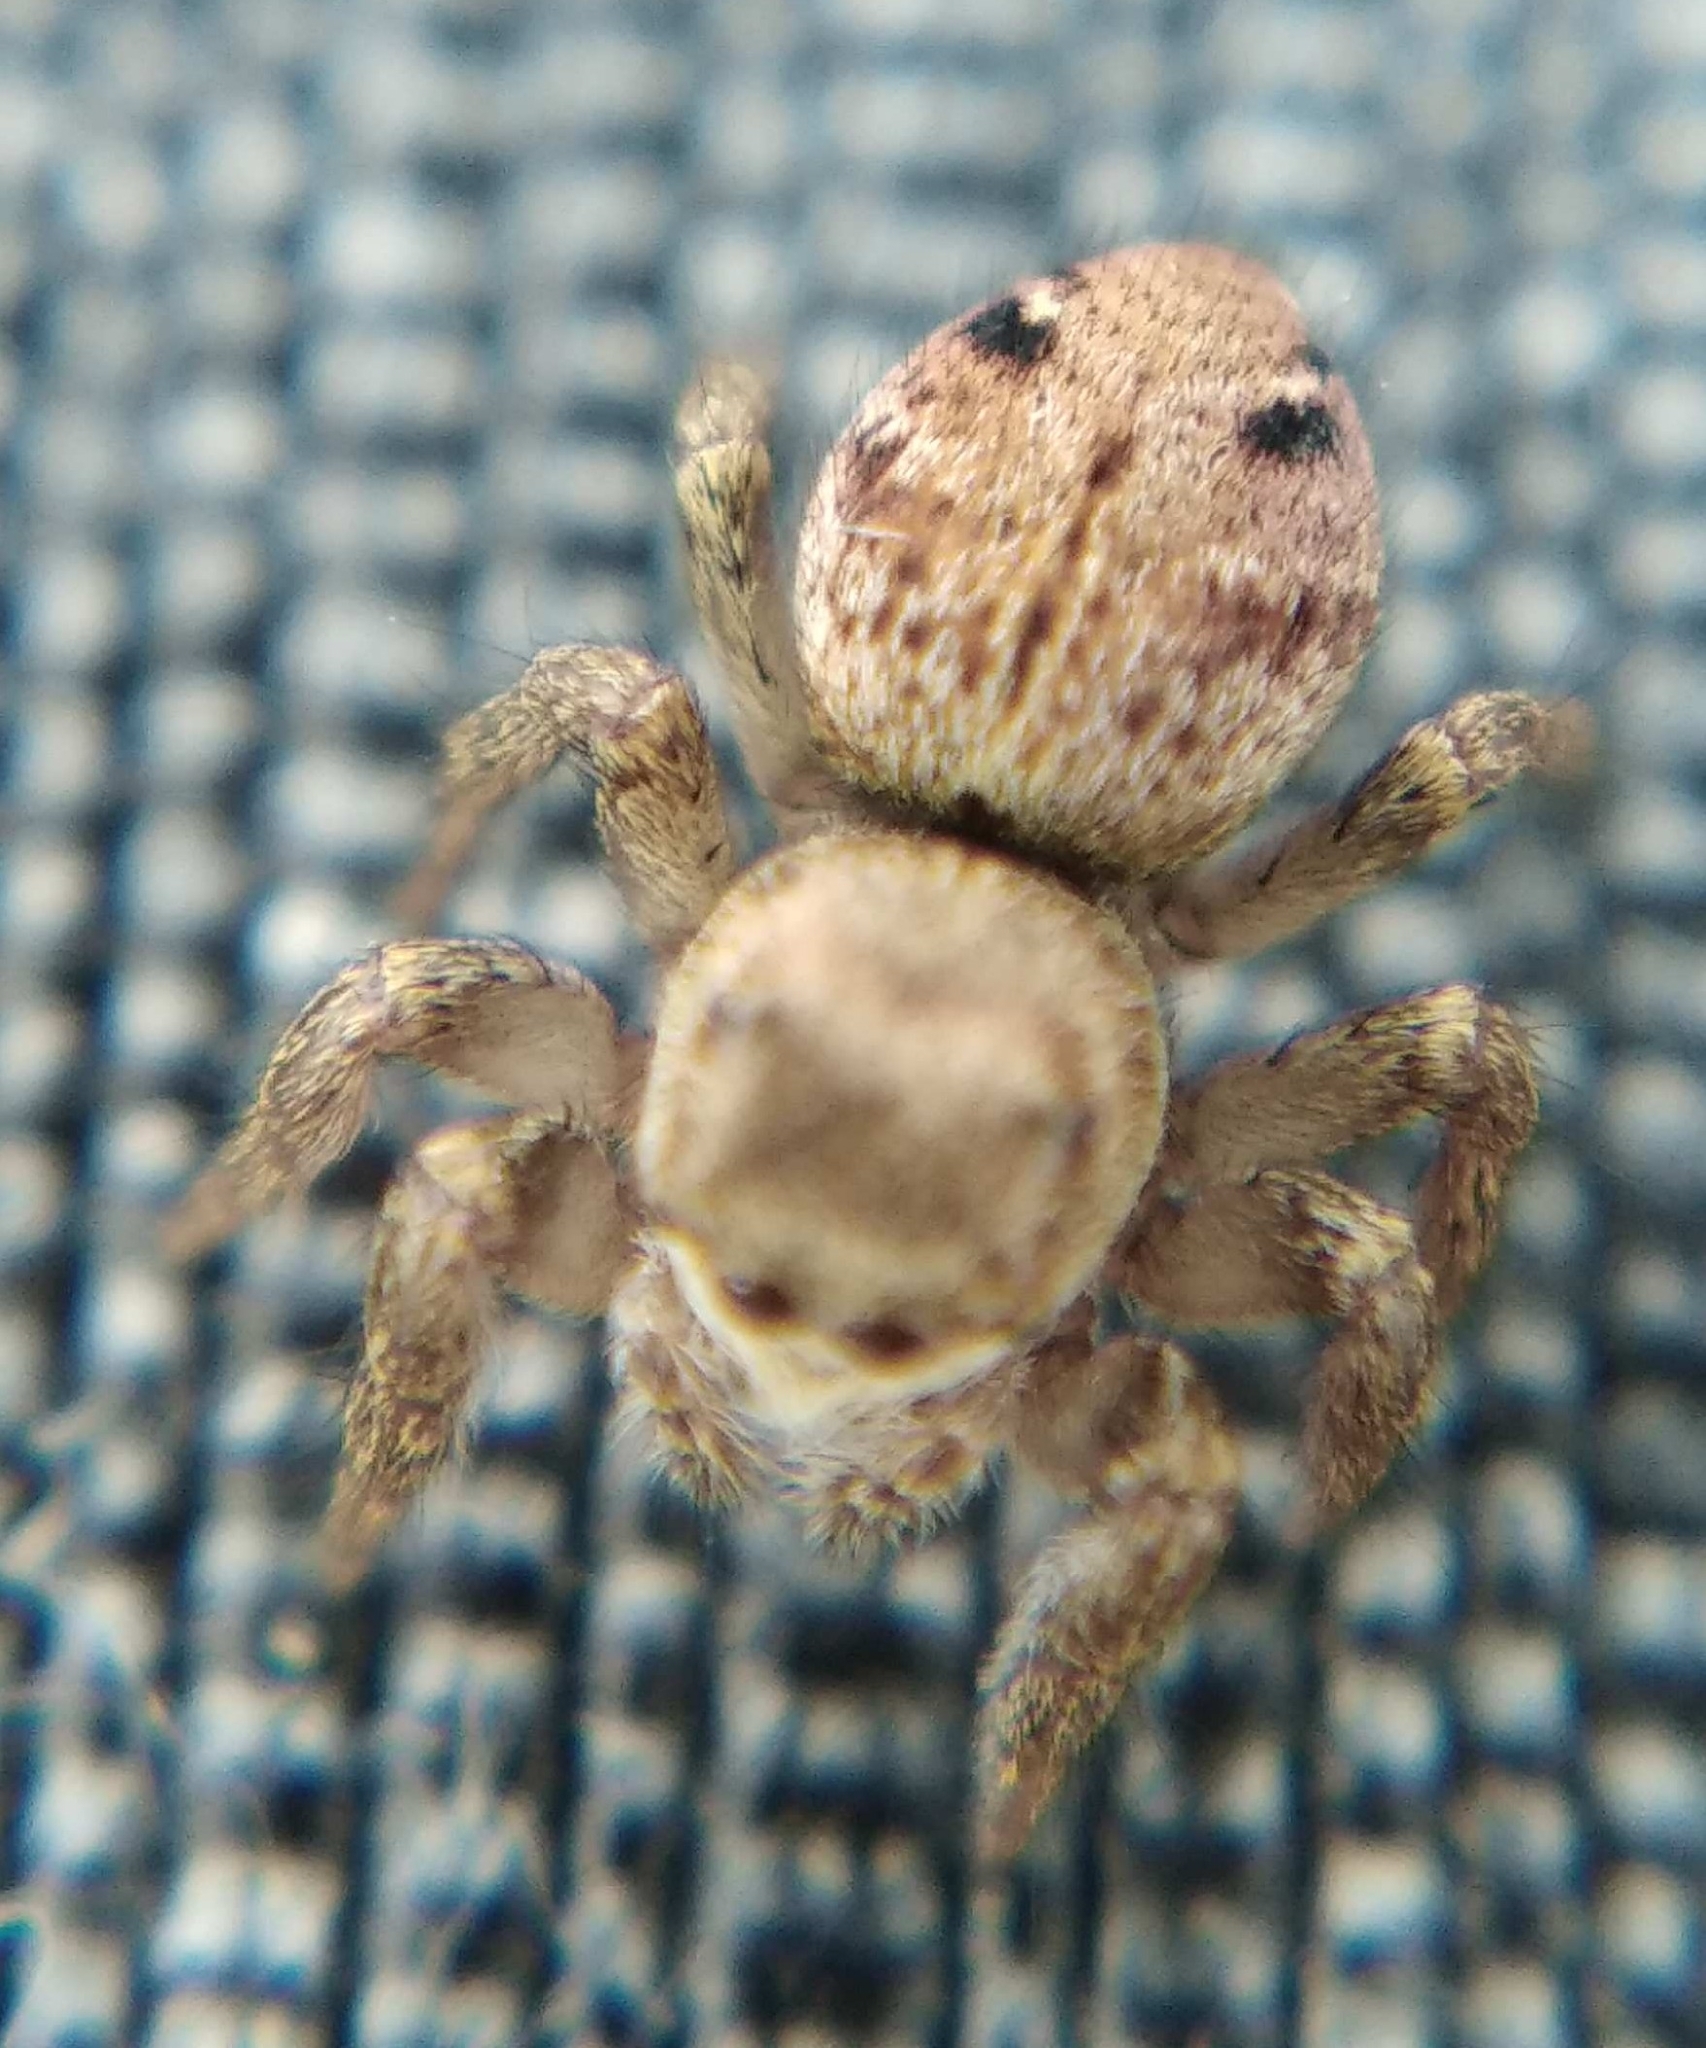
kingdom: Animalia
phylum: Arthropoda
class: Arachnida
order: Araneae
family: Salticidae
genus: Evarcha
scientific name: Evarcha arcuata
